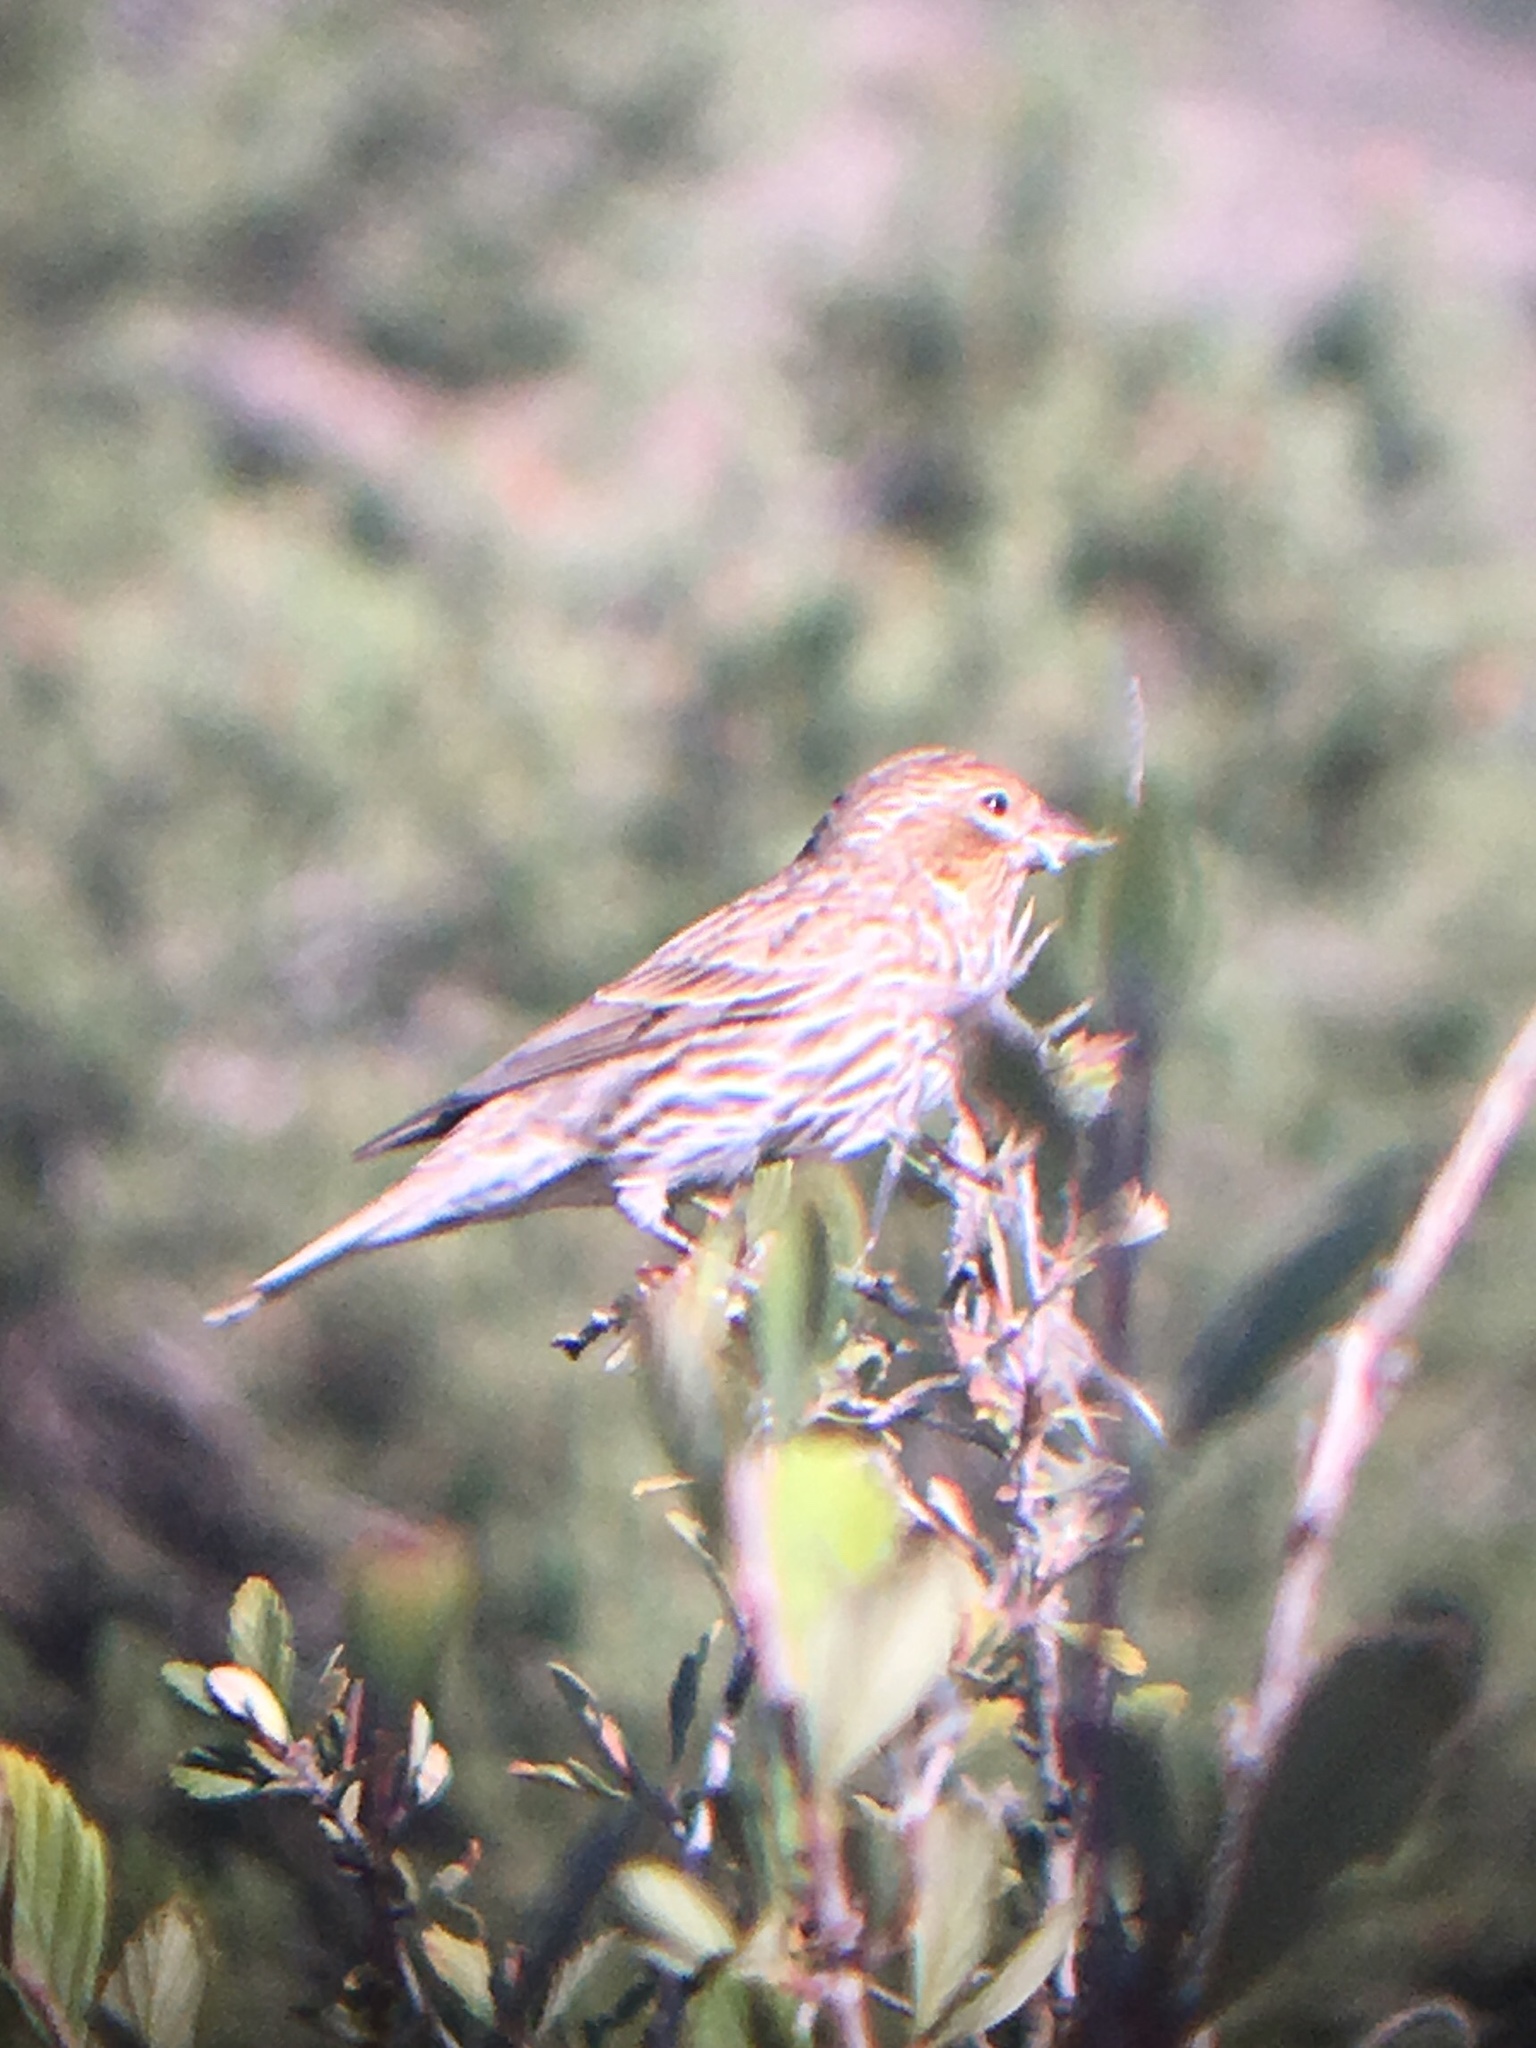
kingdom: Animalia
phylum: Chordata
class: Aves
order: Passeriformes
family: Fringillidae
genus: Haemorhous
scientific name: Haemorhous cassinii
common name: Cassin's finch
